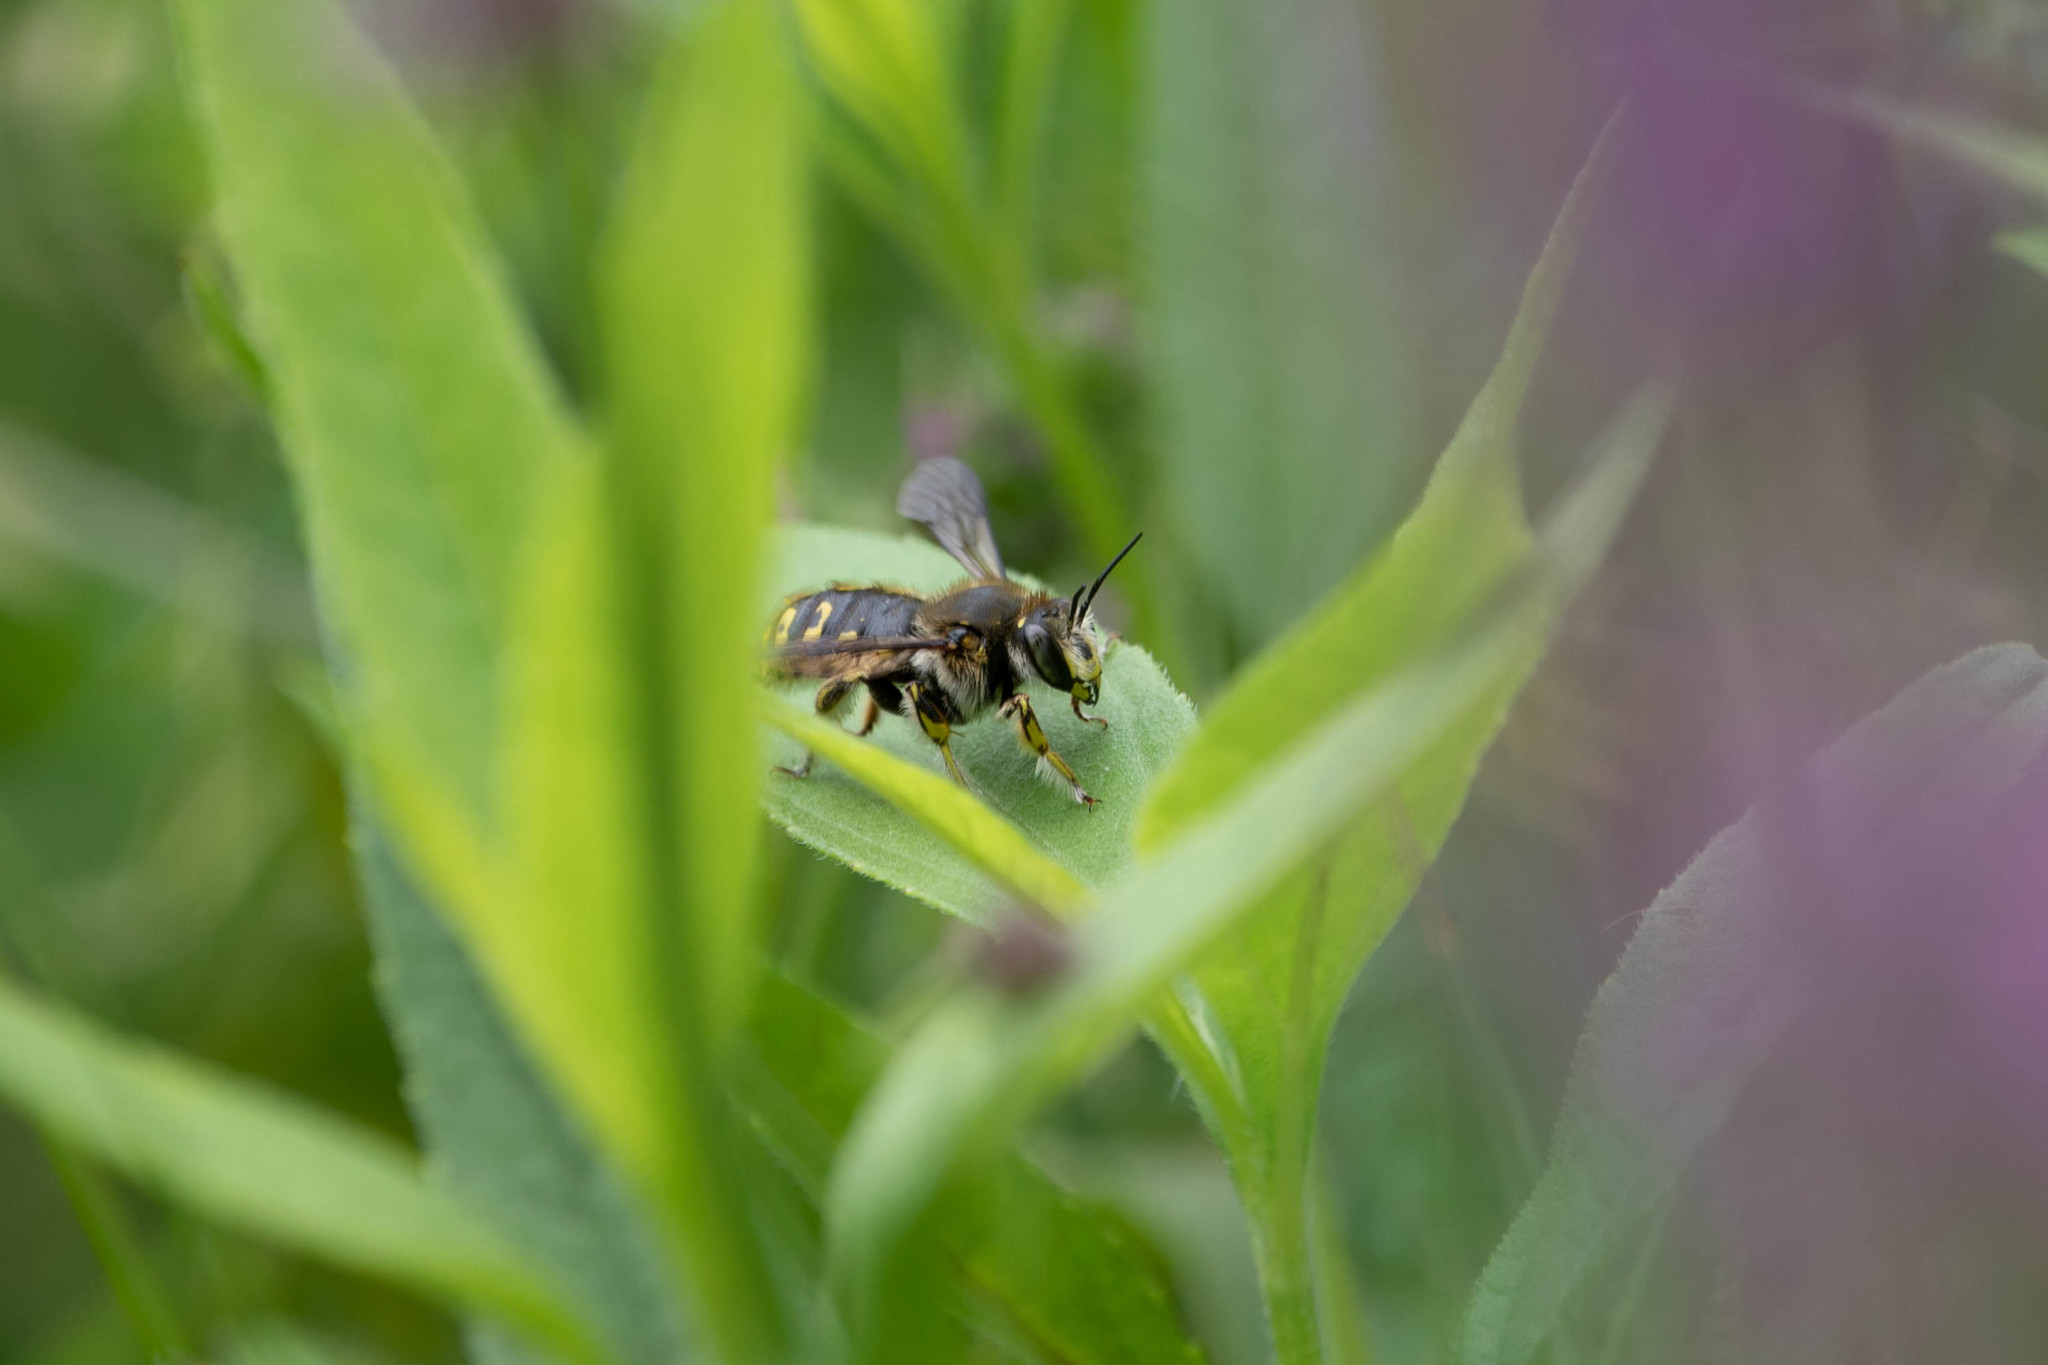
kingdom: Animalia
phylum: Arthropoda
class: Insecta
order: Hymenoptera
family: Megachilidae
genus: Anthidium
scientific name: Anthidium manicatum
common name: Wool carder bee
